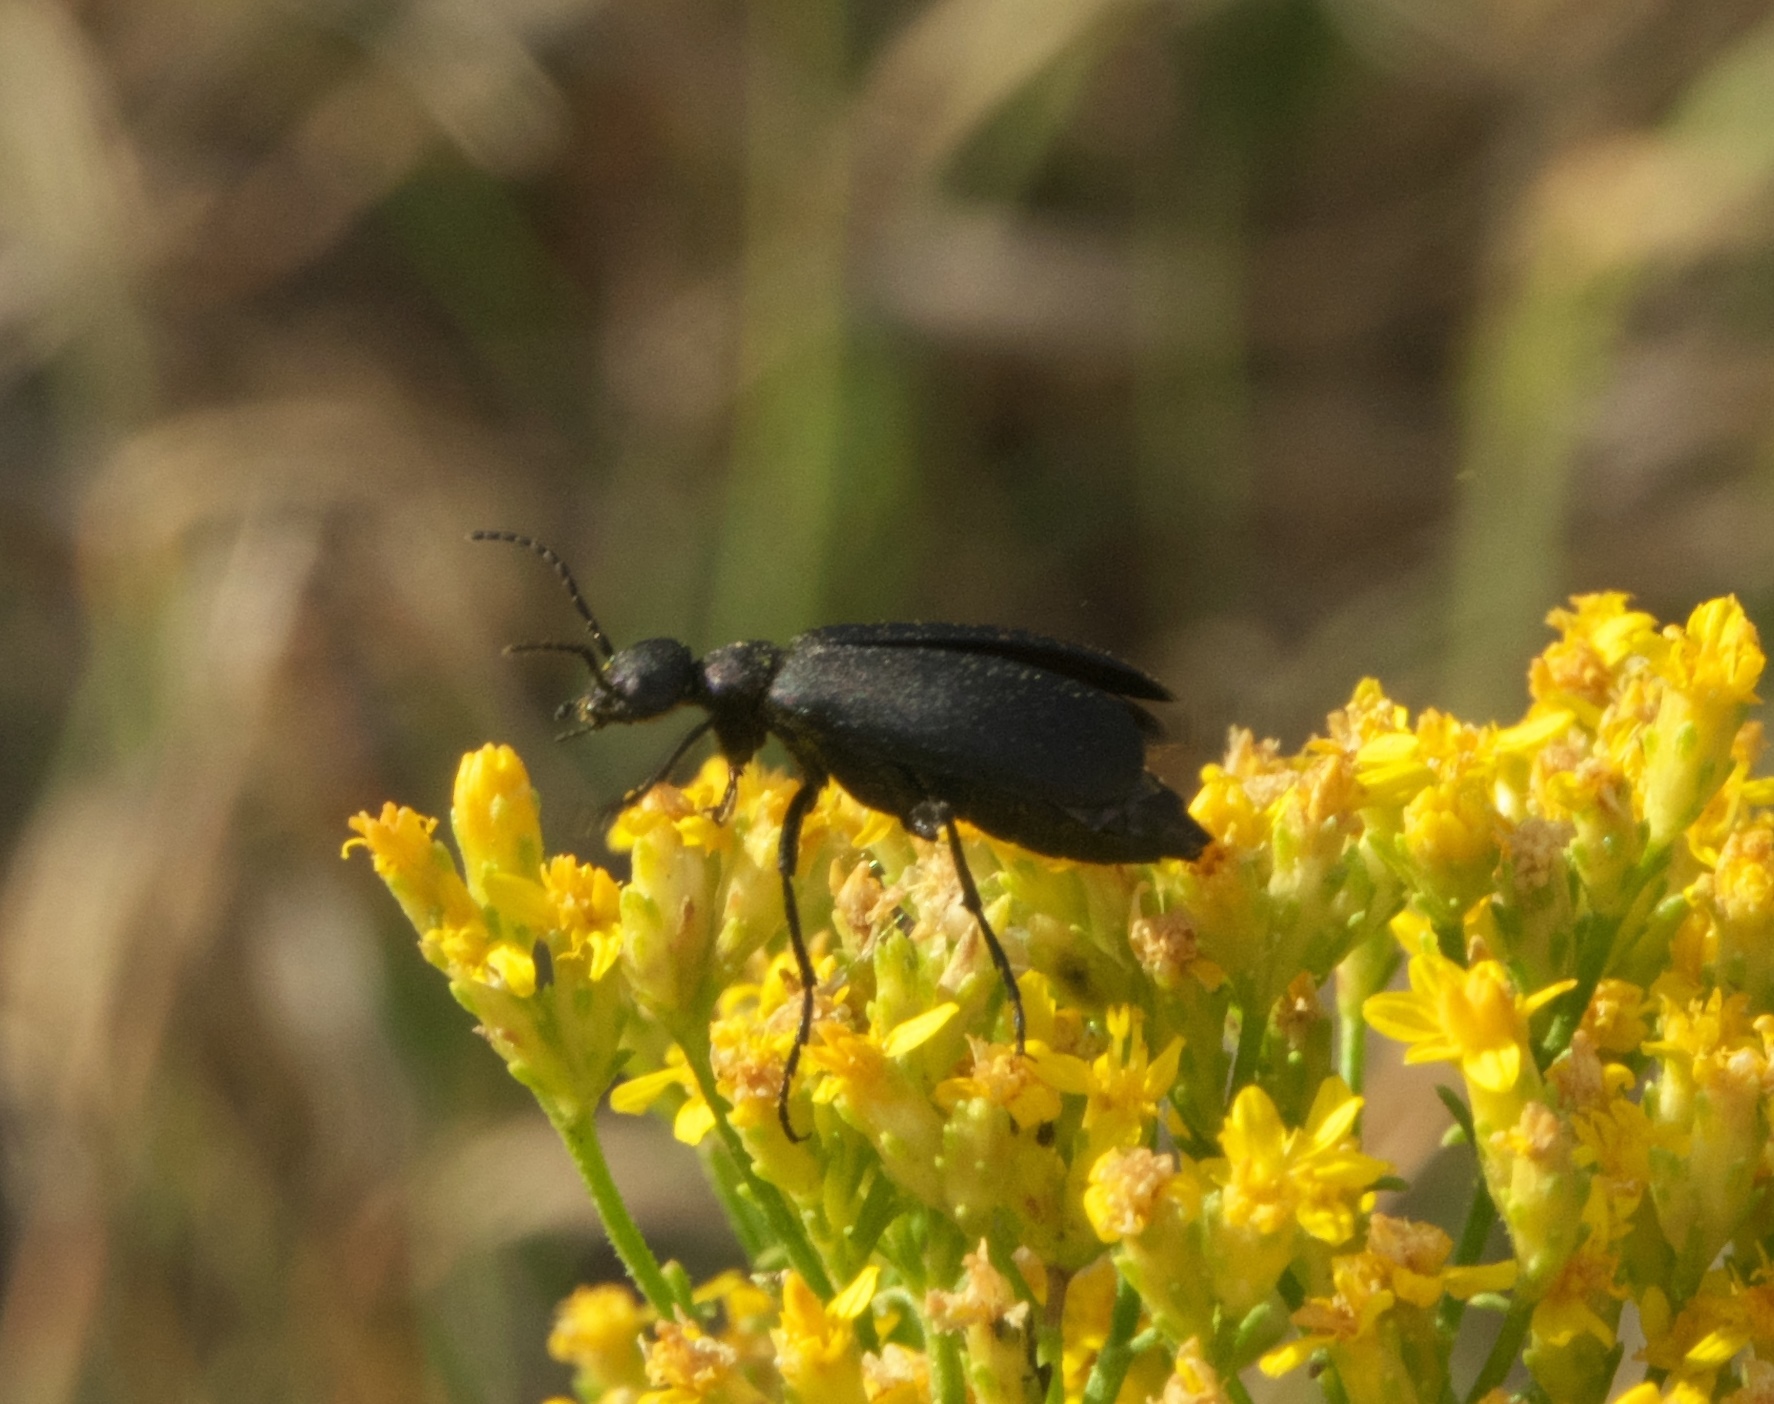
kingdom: Animalia
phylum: Arthropoda
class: Insecta
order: Coleoptera
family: Meloidae
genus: Epicauta
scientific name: Epicauta pensylvanica
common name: Black blister beetle
